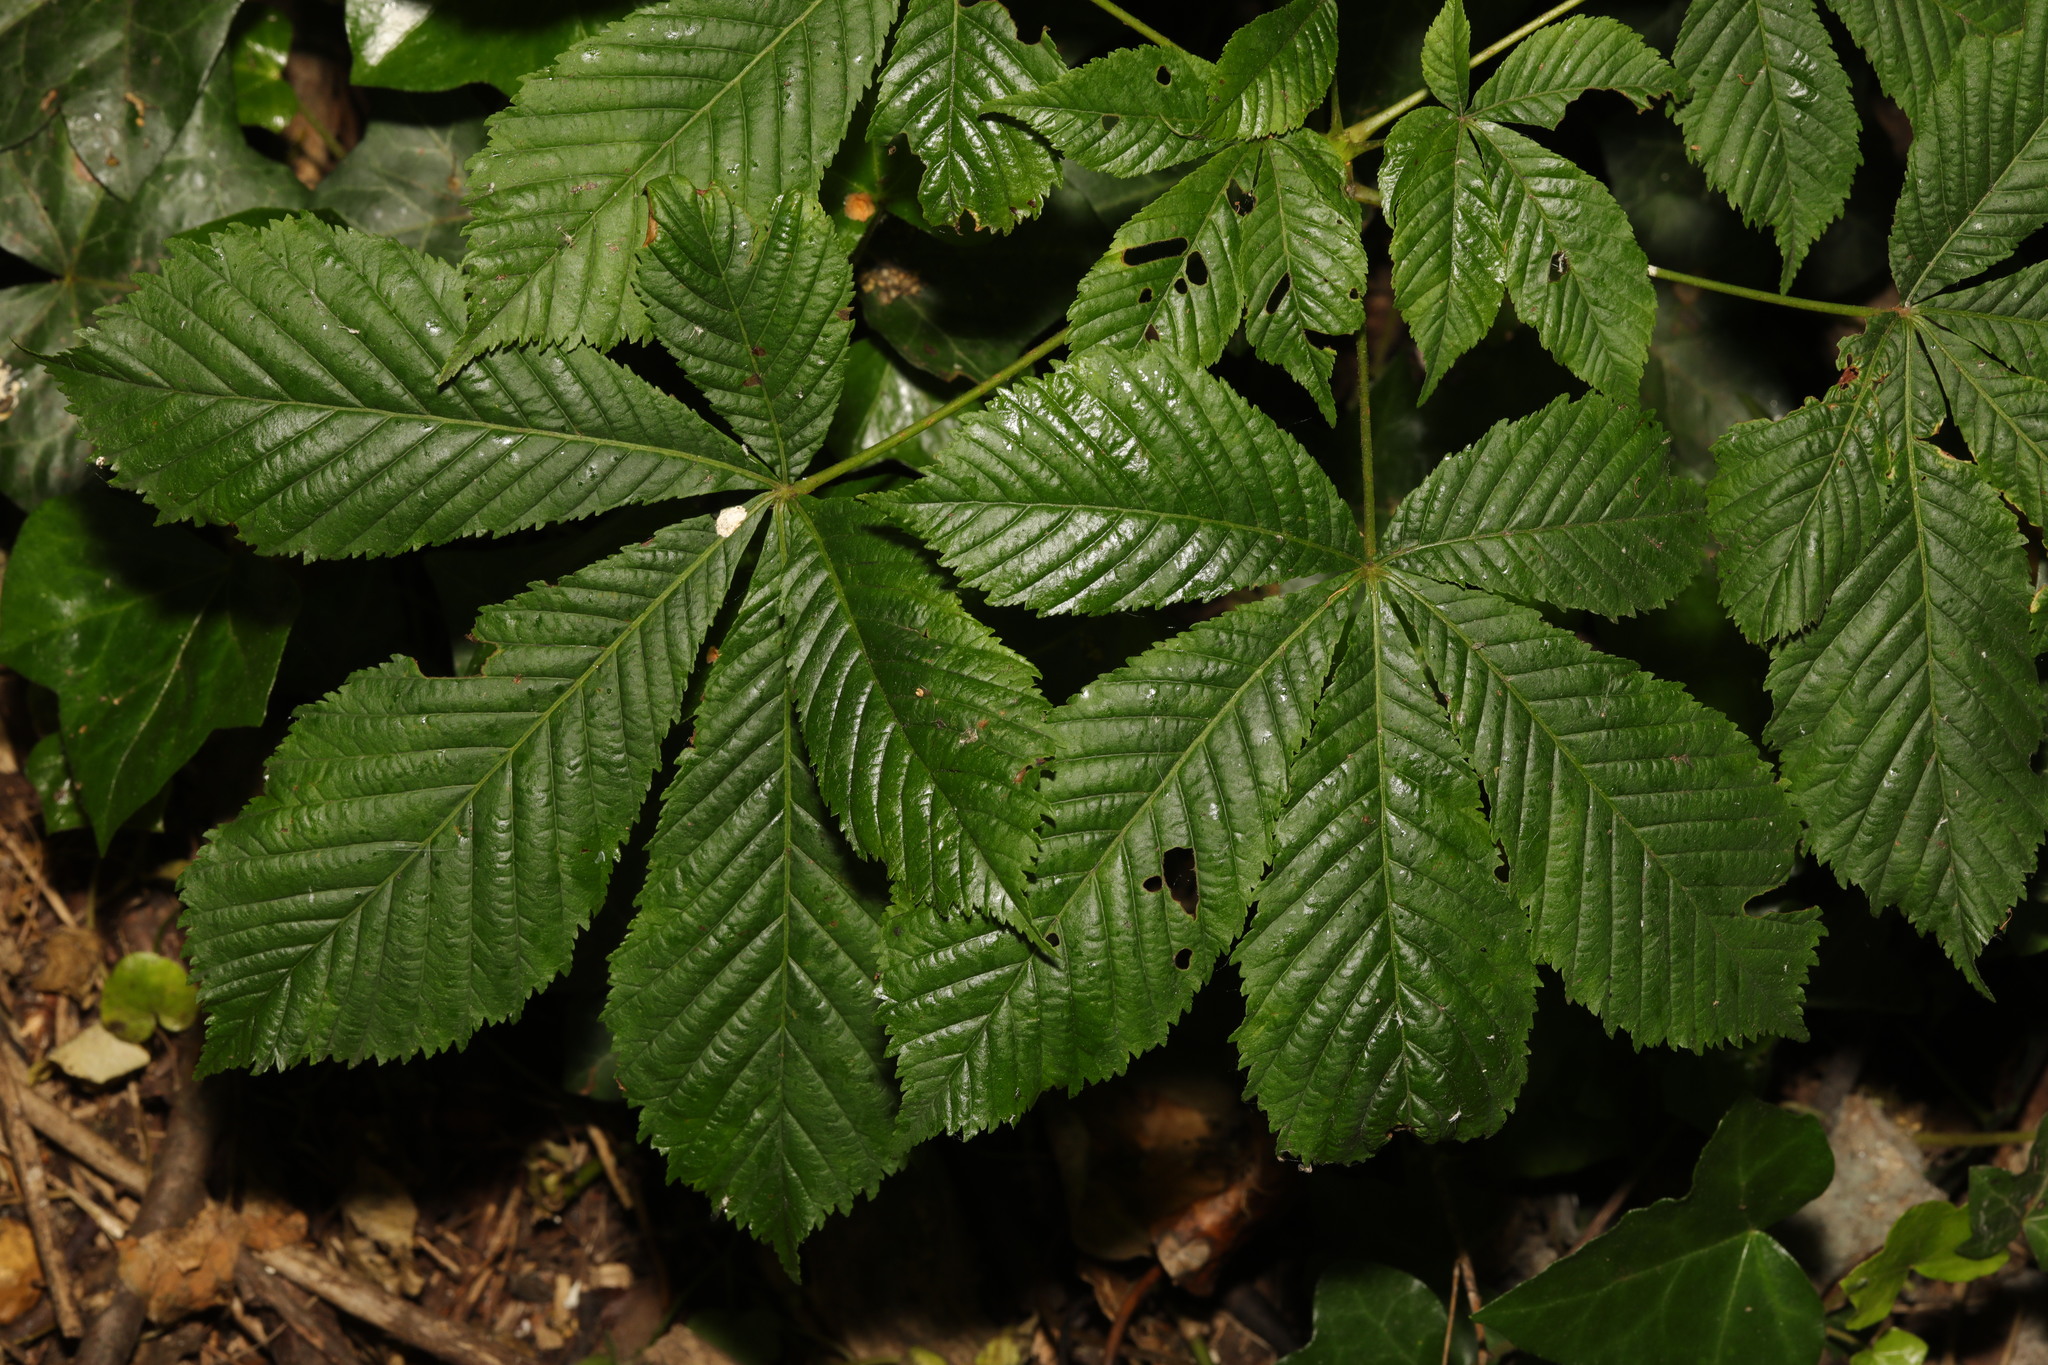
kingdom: Plantae
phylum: Tracheophyta
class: Magnoliopsida
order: Sapindales
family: Sapindaceae
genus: Aesculus
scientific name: Aesculus hippocastanum
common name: Horse-chestnut
